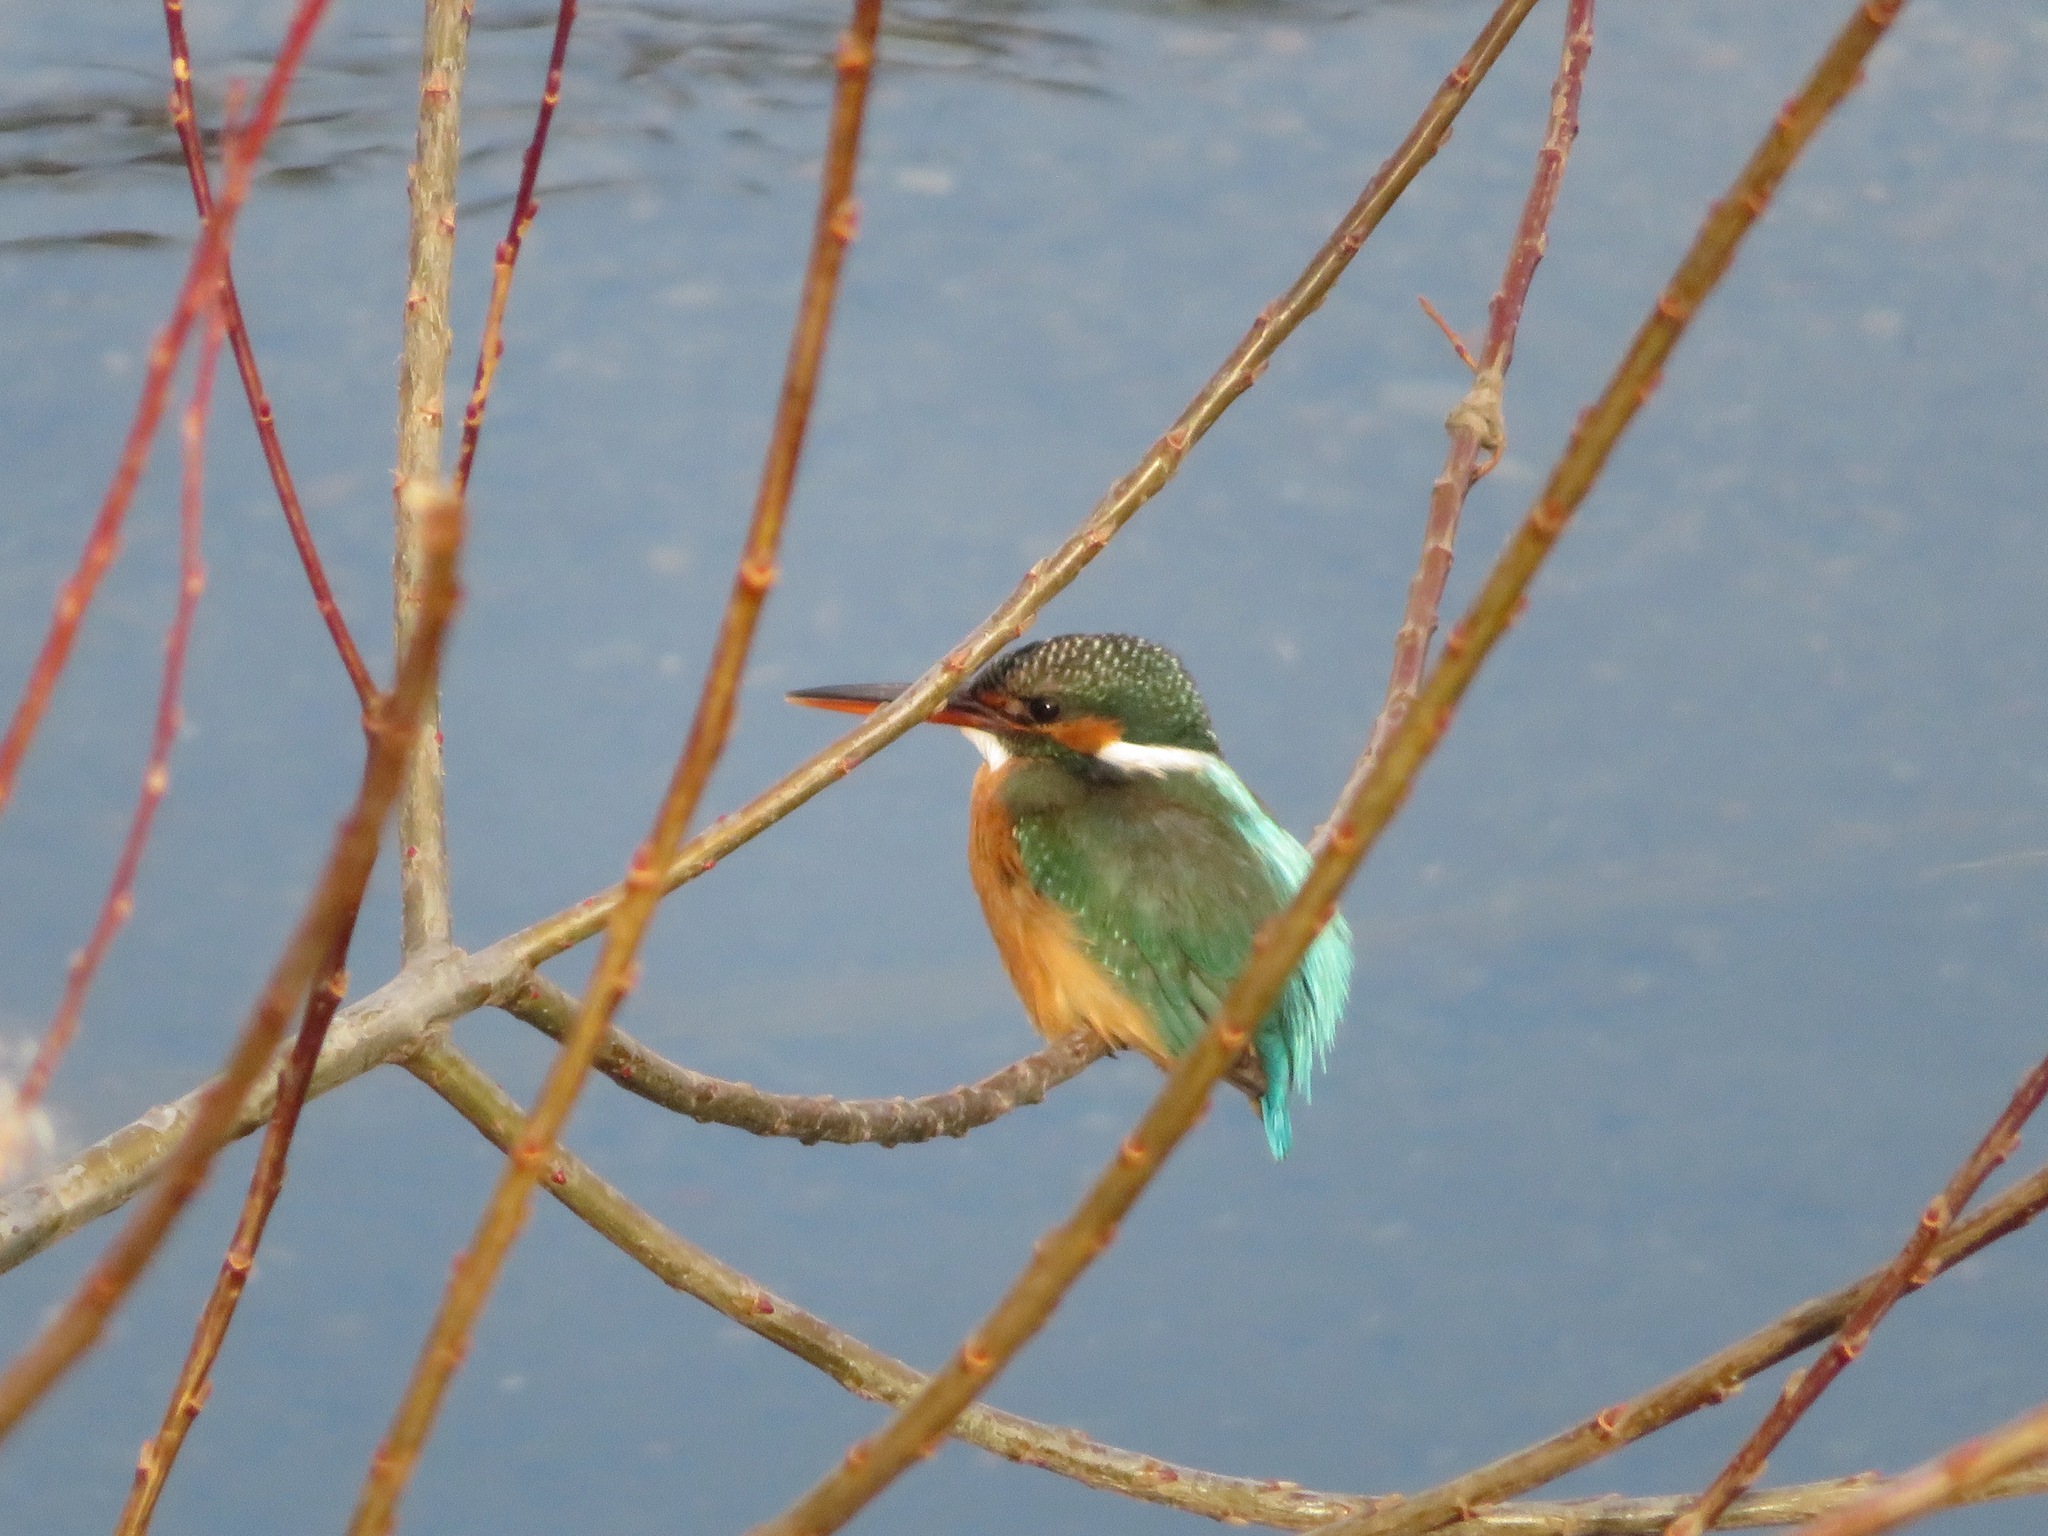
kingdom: Animalia
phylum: Chordata
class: Aves
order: Coraciiformes
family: Alcedinidae
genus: Alcedo
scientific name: Alcedo atthis
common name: Common kingfisher
